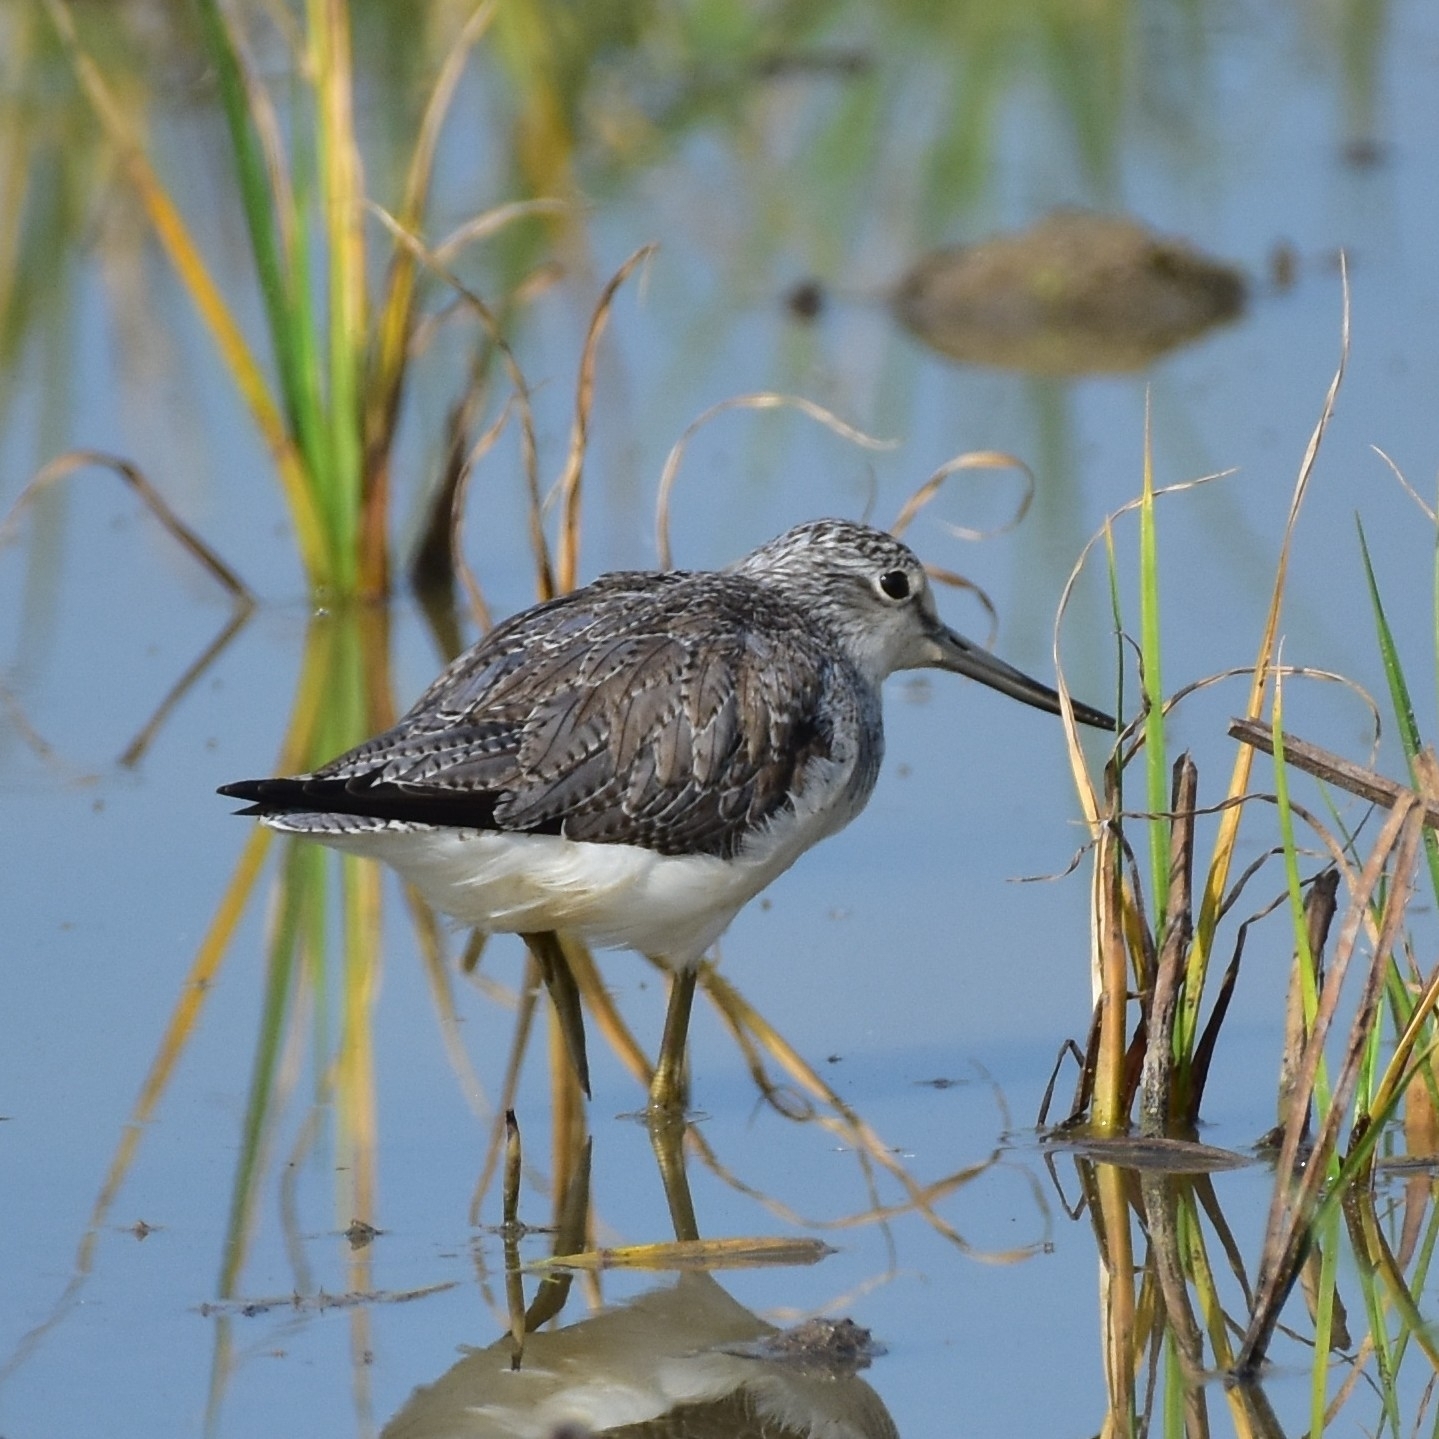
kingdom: Animalia
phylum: Chordata
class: Aves
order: Charadriiformes
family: Scolopacidae
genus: Tringa
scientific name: Tringa nebularia
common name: Common greenshank
